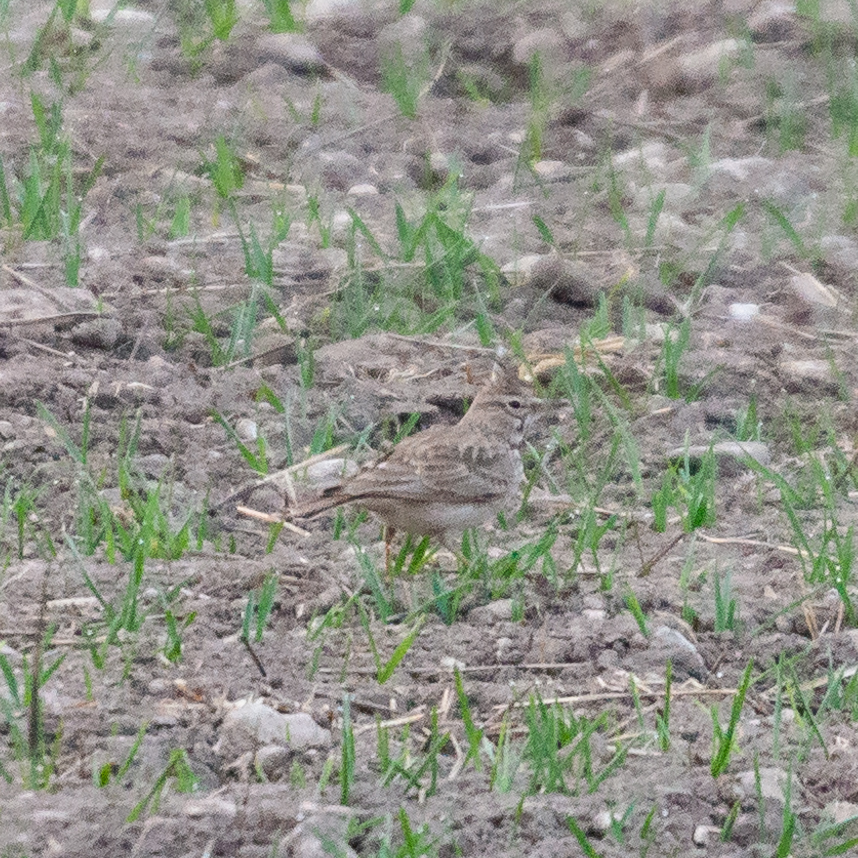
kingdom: Animalia
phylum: Chordata
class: Aves
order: Passeriformes
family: Alaudidae
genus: Galerida
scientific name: Galerida cristata
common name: Crested lark
